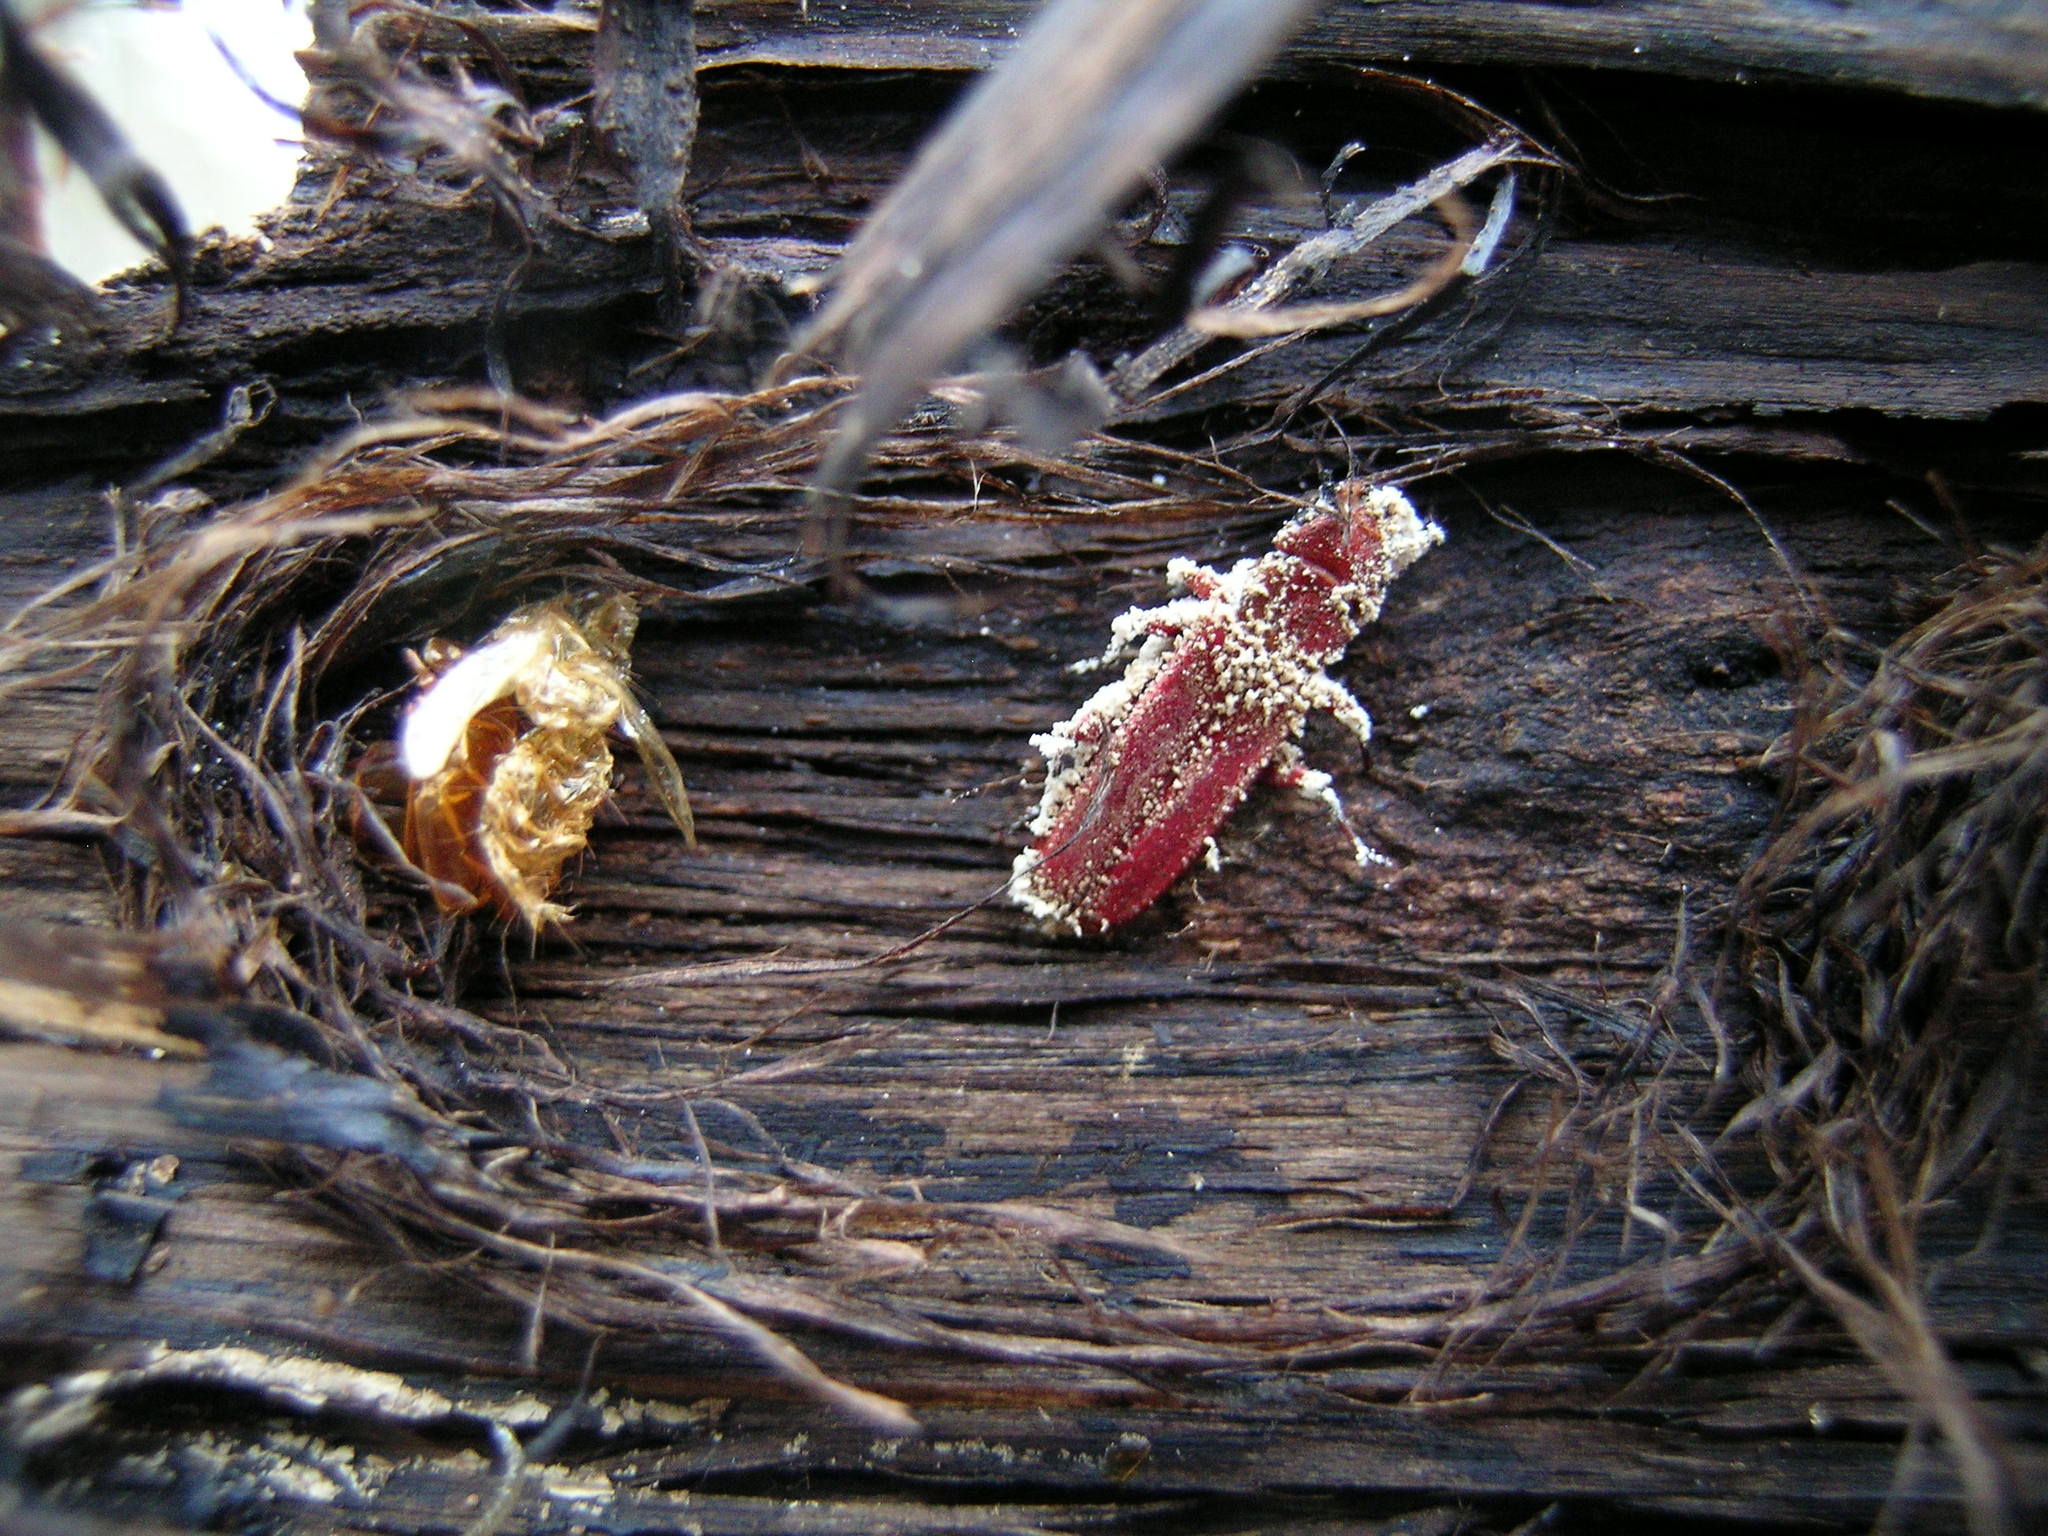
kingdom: Animalia
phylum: Arthropoda
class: Insecta
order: Coleoptera
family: Cucujidae
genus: Cucujus
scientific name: Cucujus clavipes
